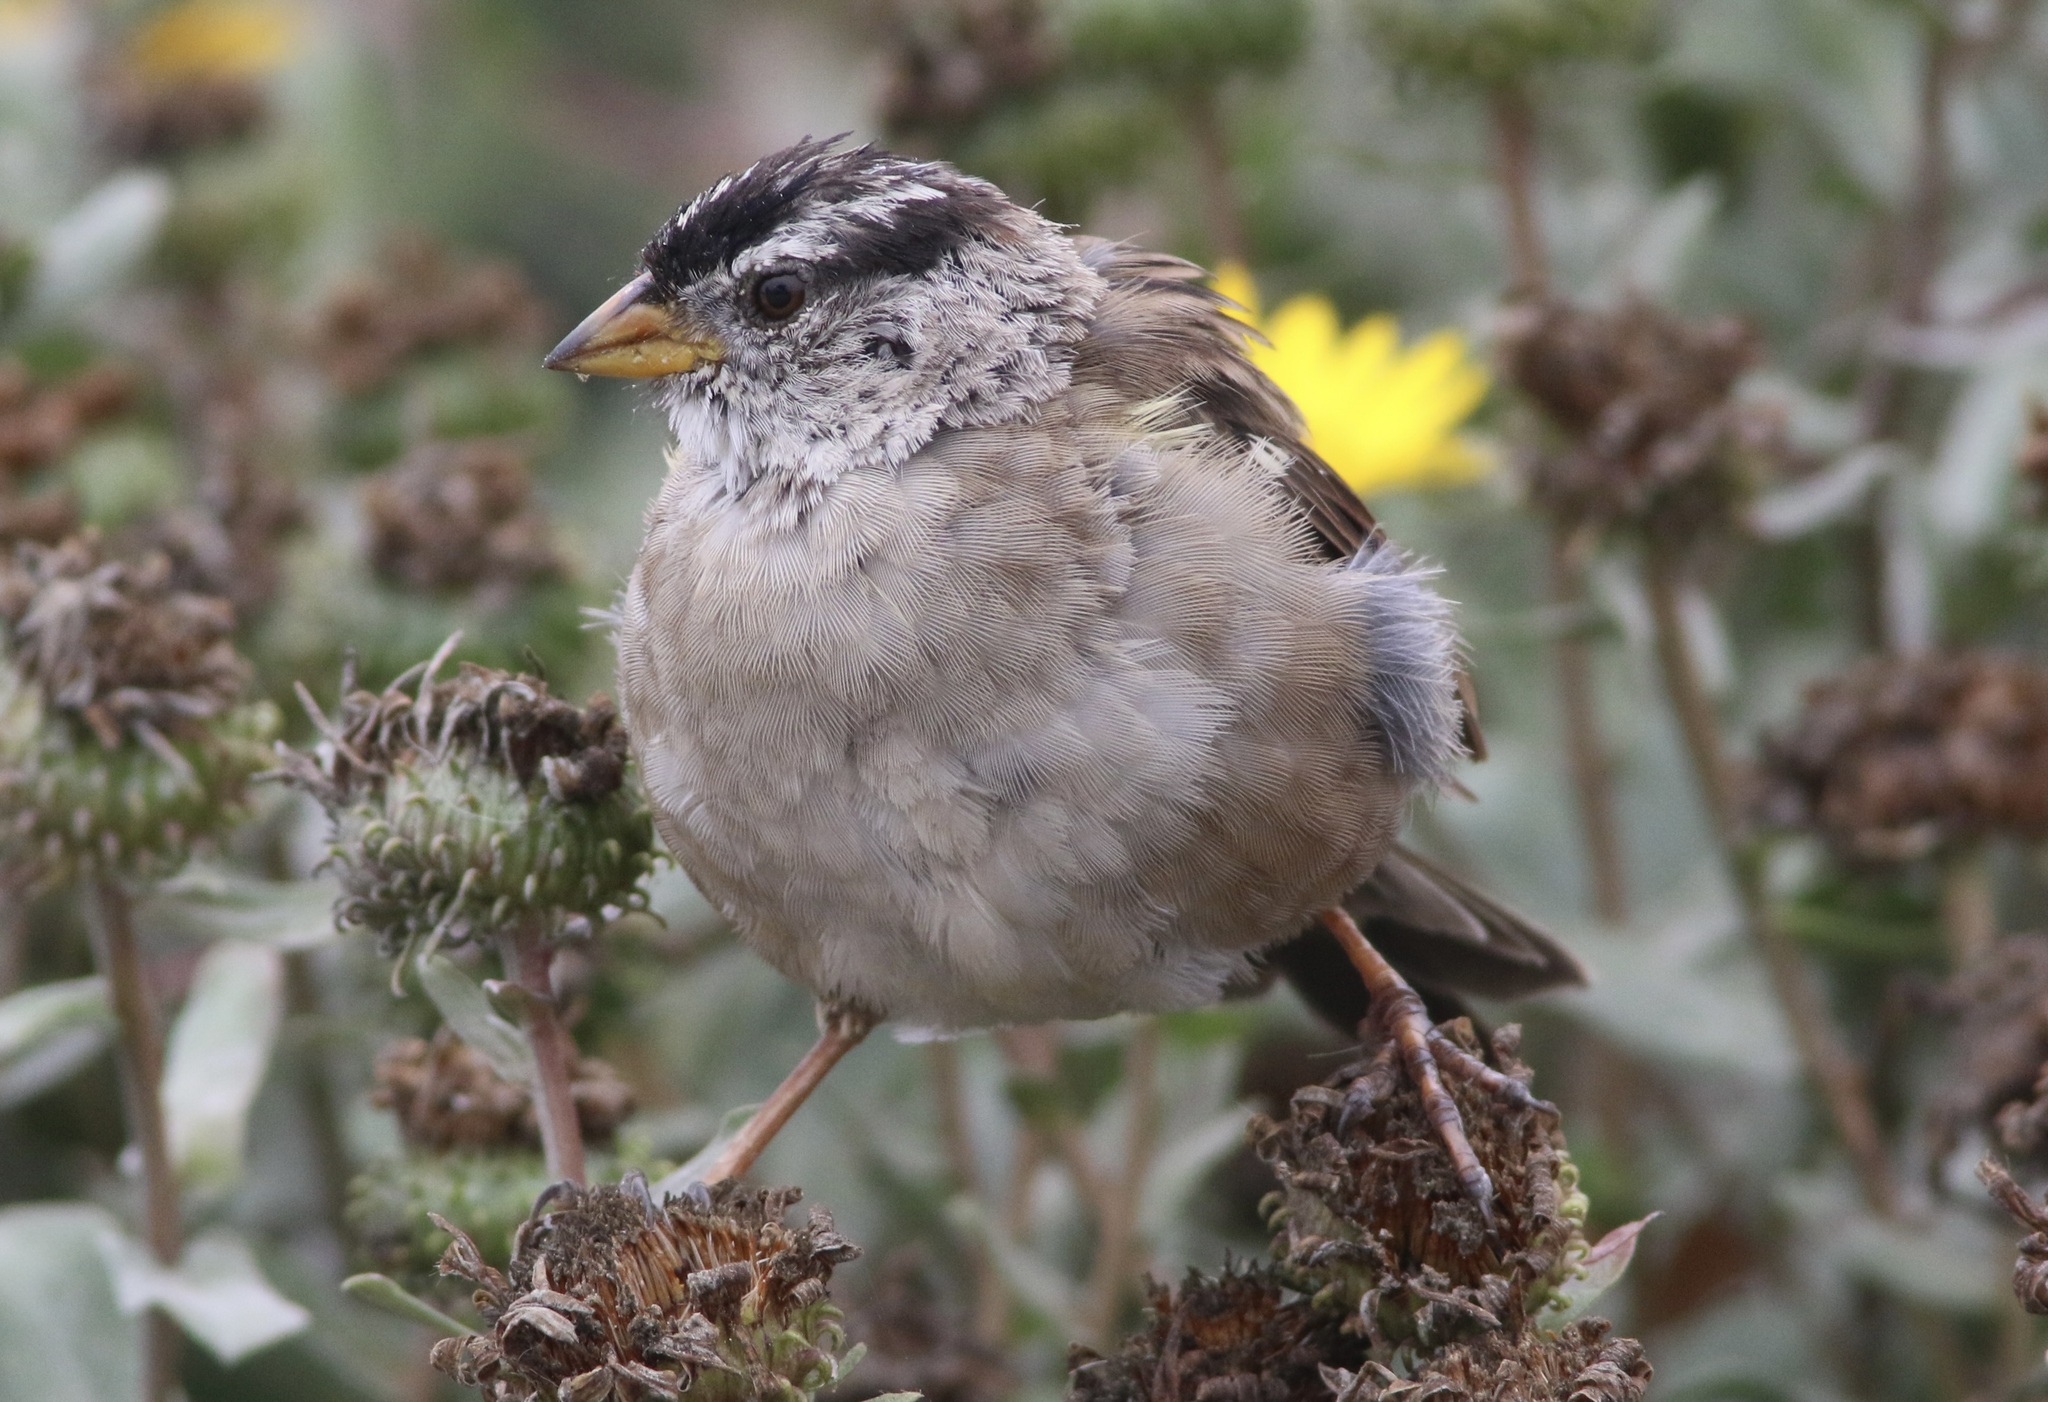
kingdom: Animalia
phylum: Chordata
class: Aves
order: Passeriformes
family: Passerellidae
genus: Zonotrichia
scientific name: Zonotrichia leucophrys
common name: White-crowned sparrow
